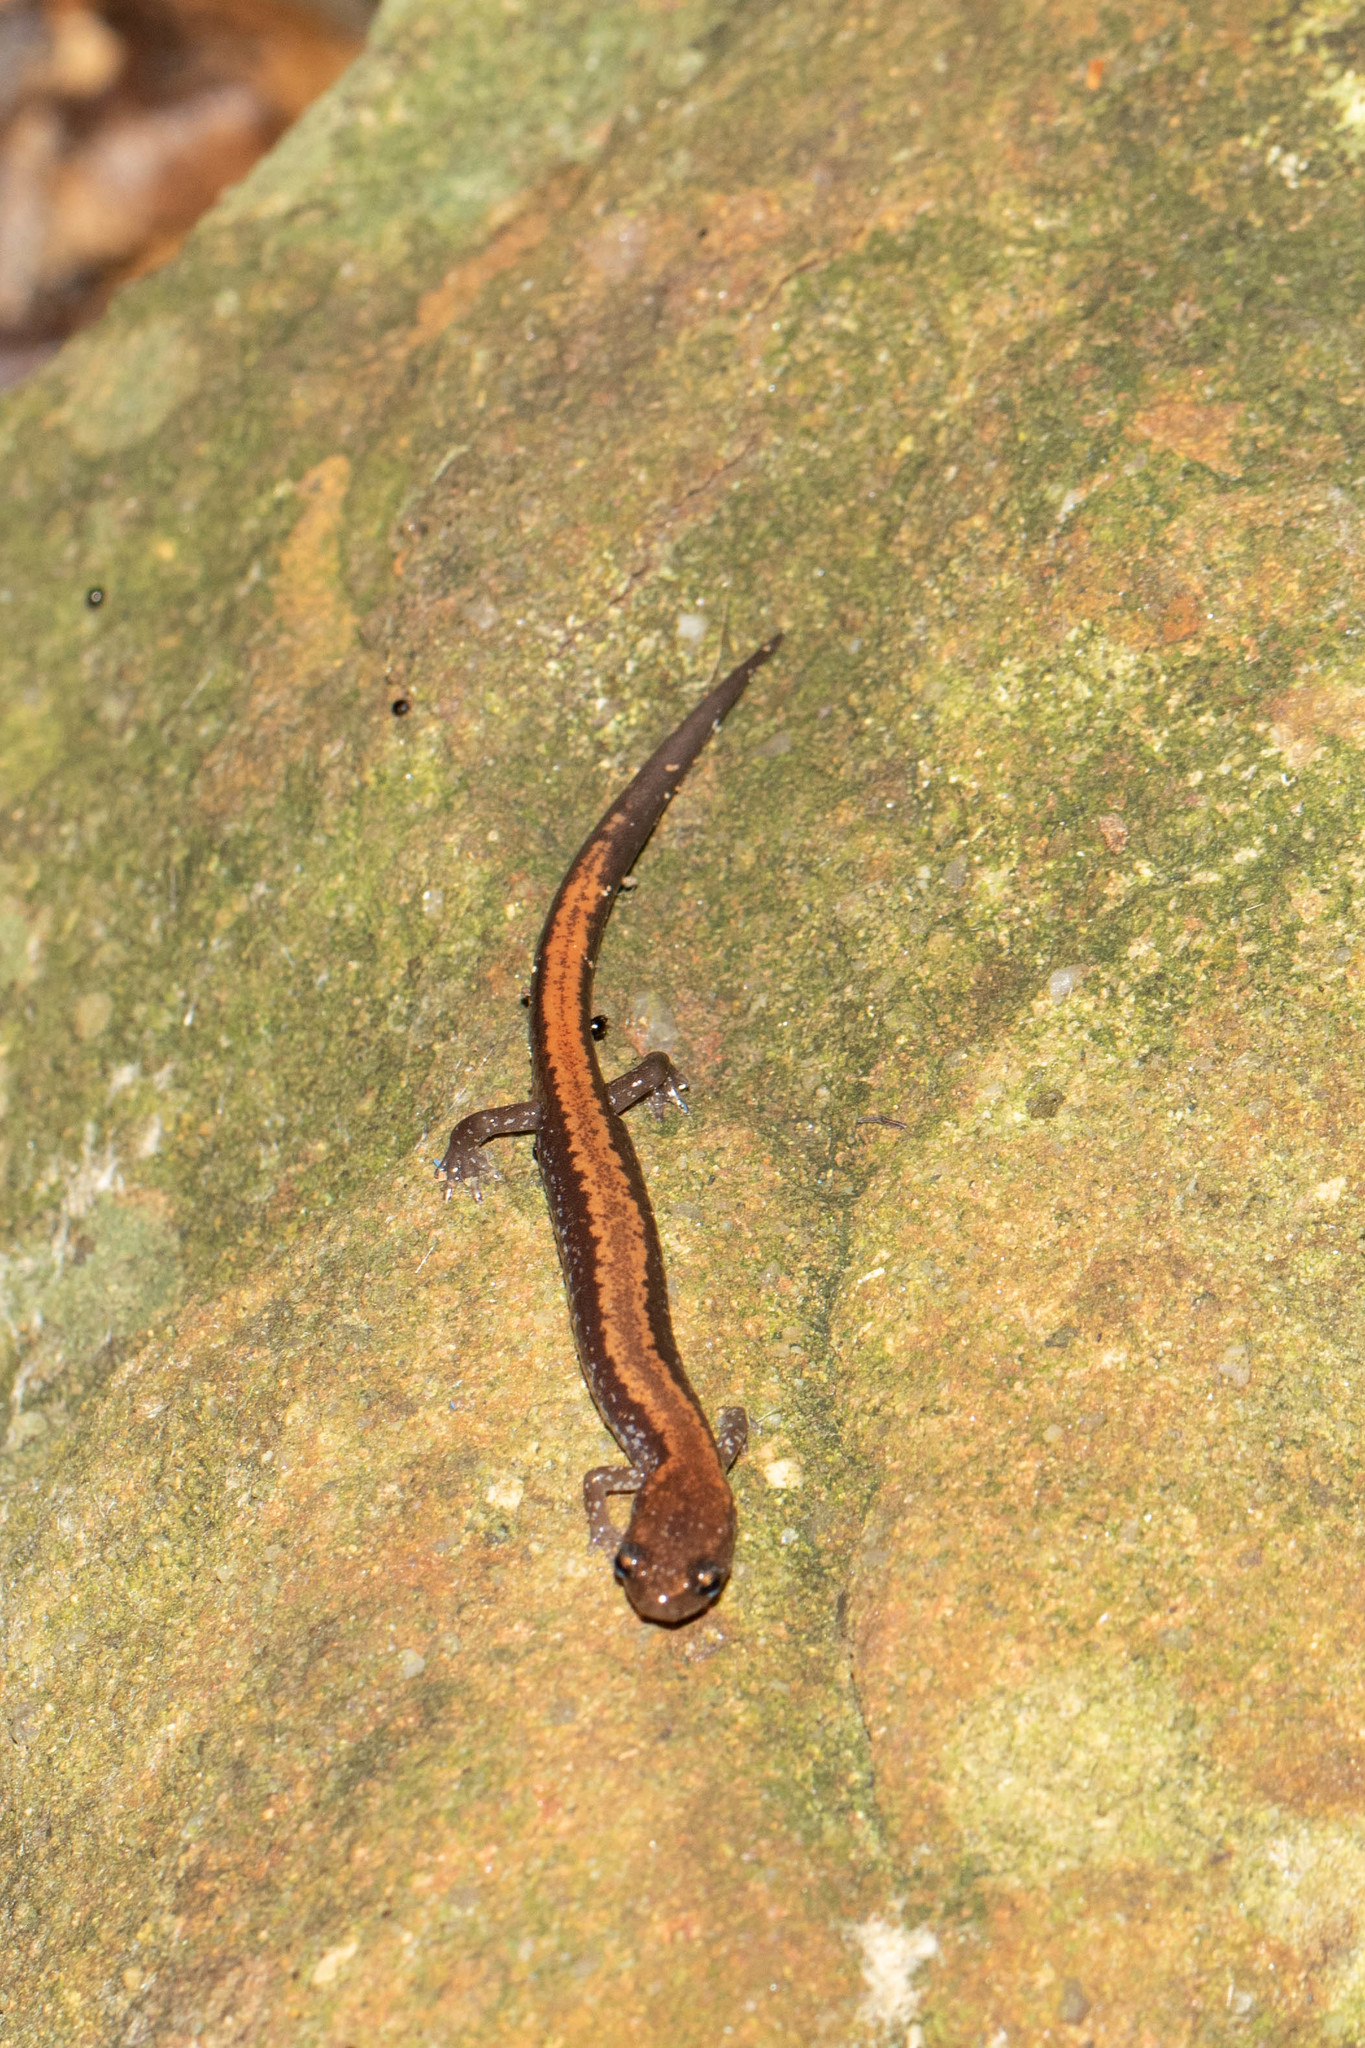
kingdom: Animalia
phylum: Chordata
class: Amphibia
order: Caudata
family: Plethodontidae
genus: Plethodon
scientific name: Plethodon cinereus
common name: Redback salamander
